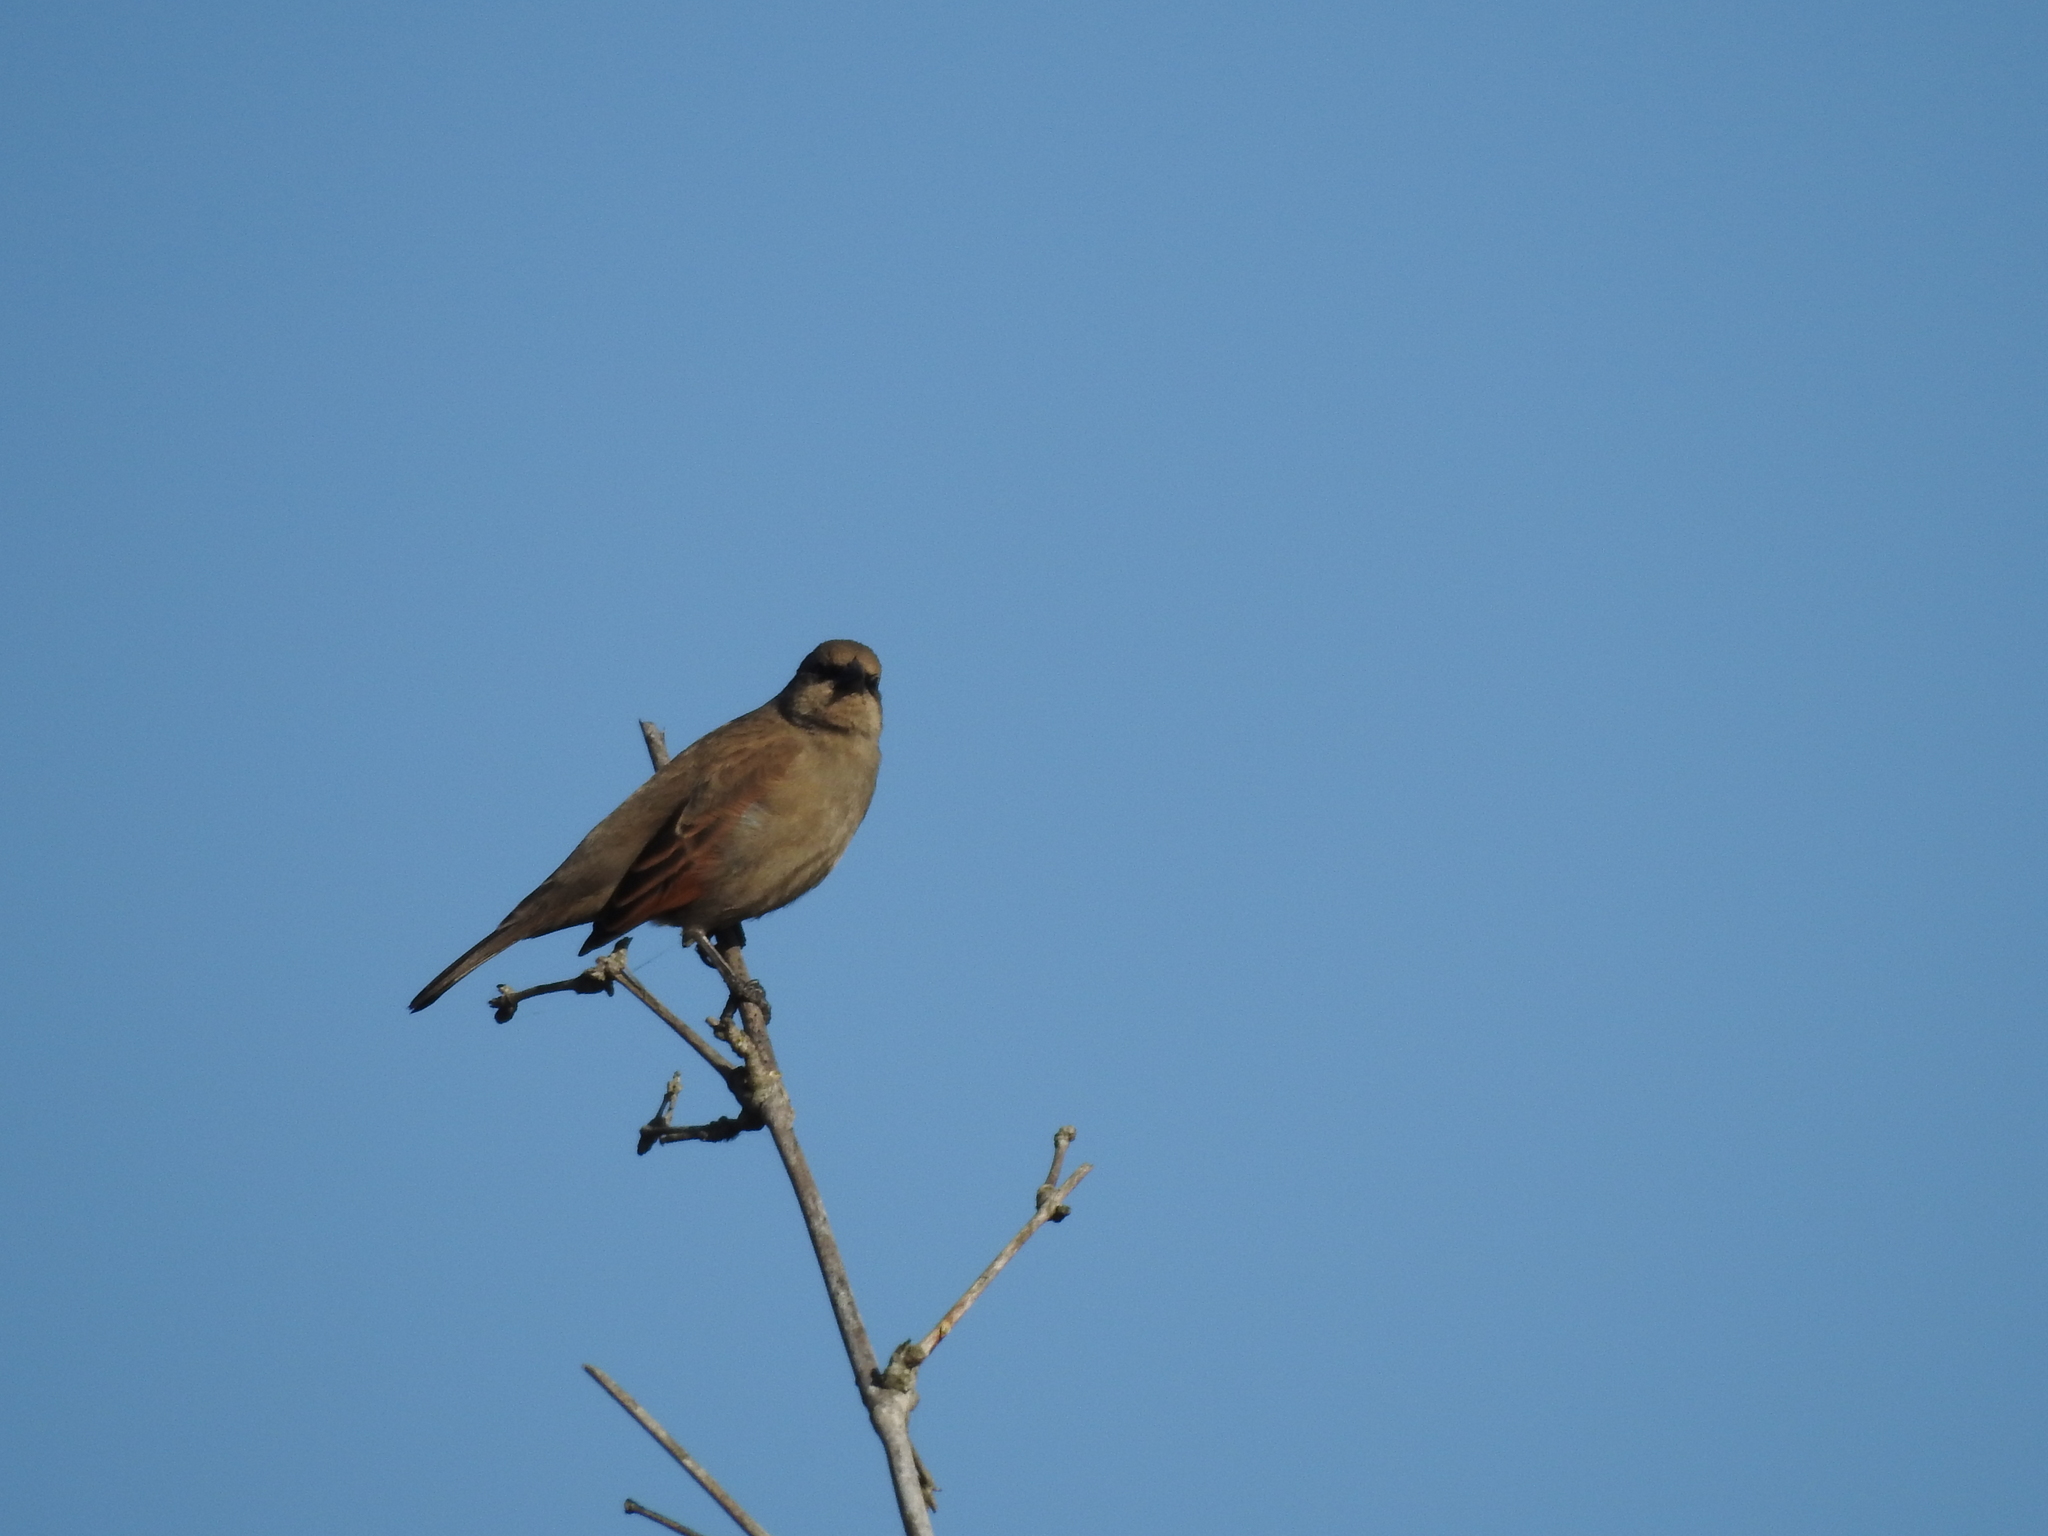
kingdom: Animalia
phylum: Chordata
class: Aves
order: Passeriformes
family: Icteridae
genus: Agelaioides
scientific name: Agelaioides badius
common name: Baywing
